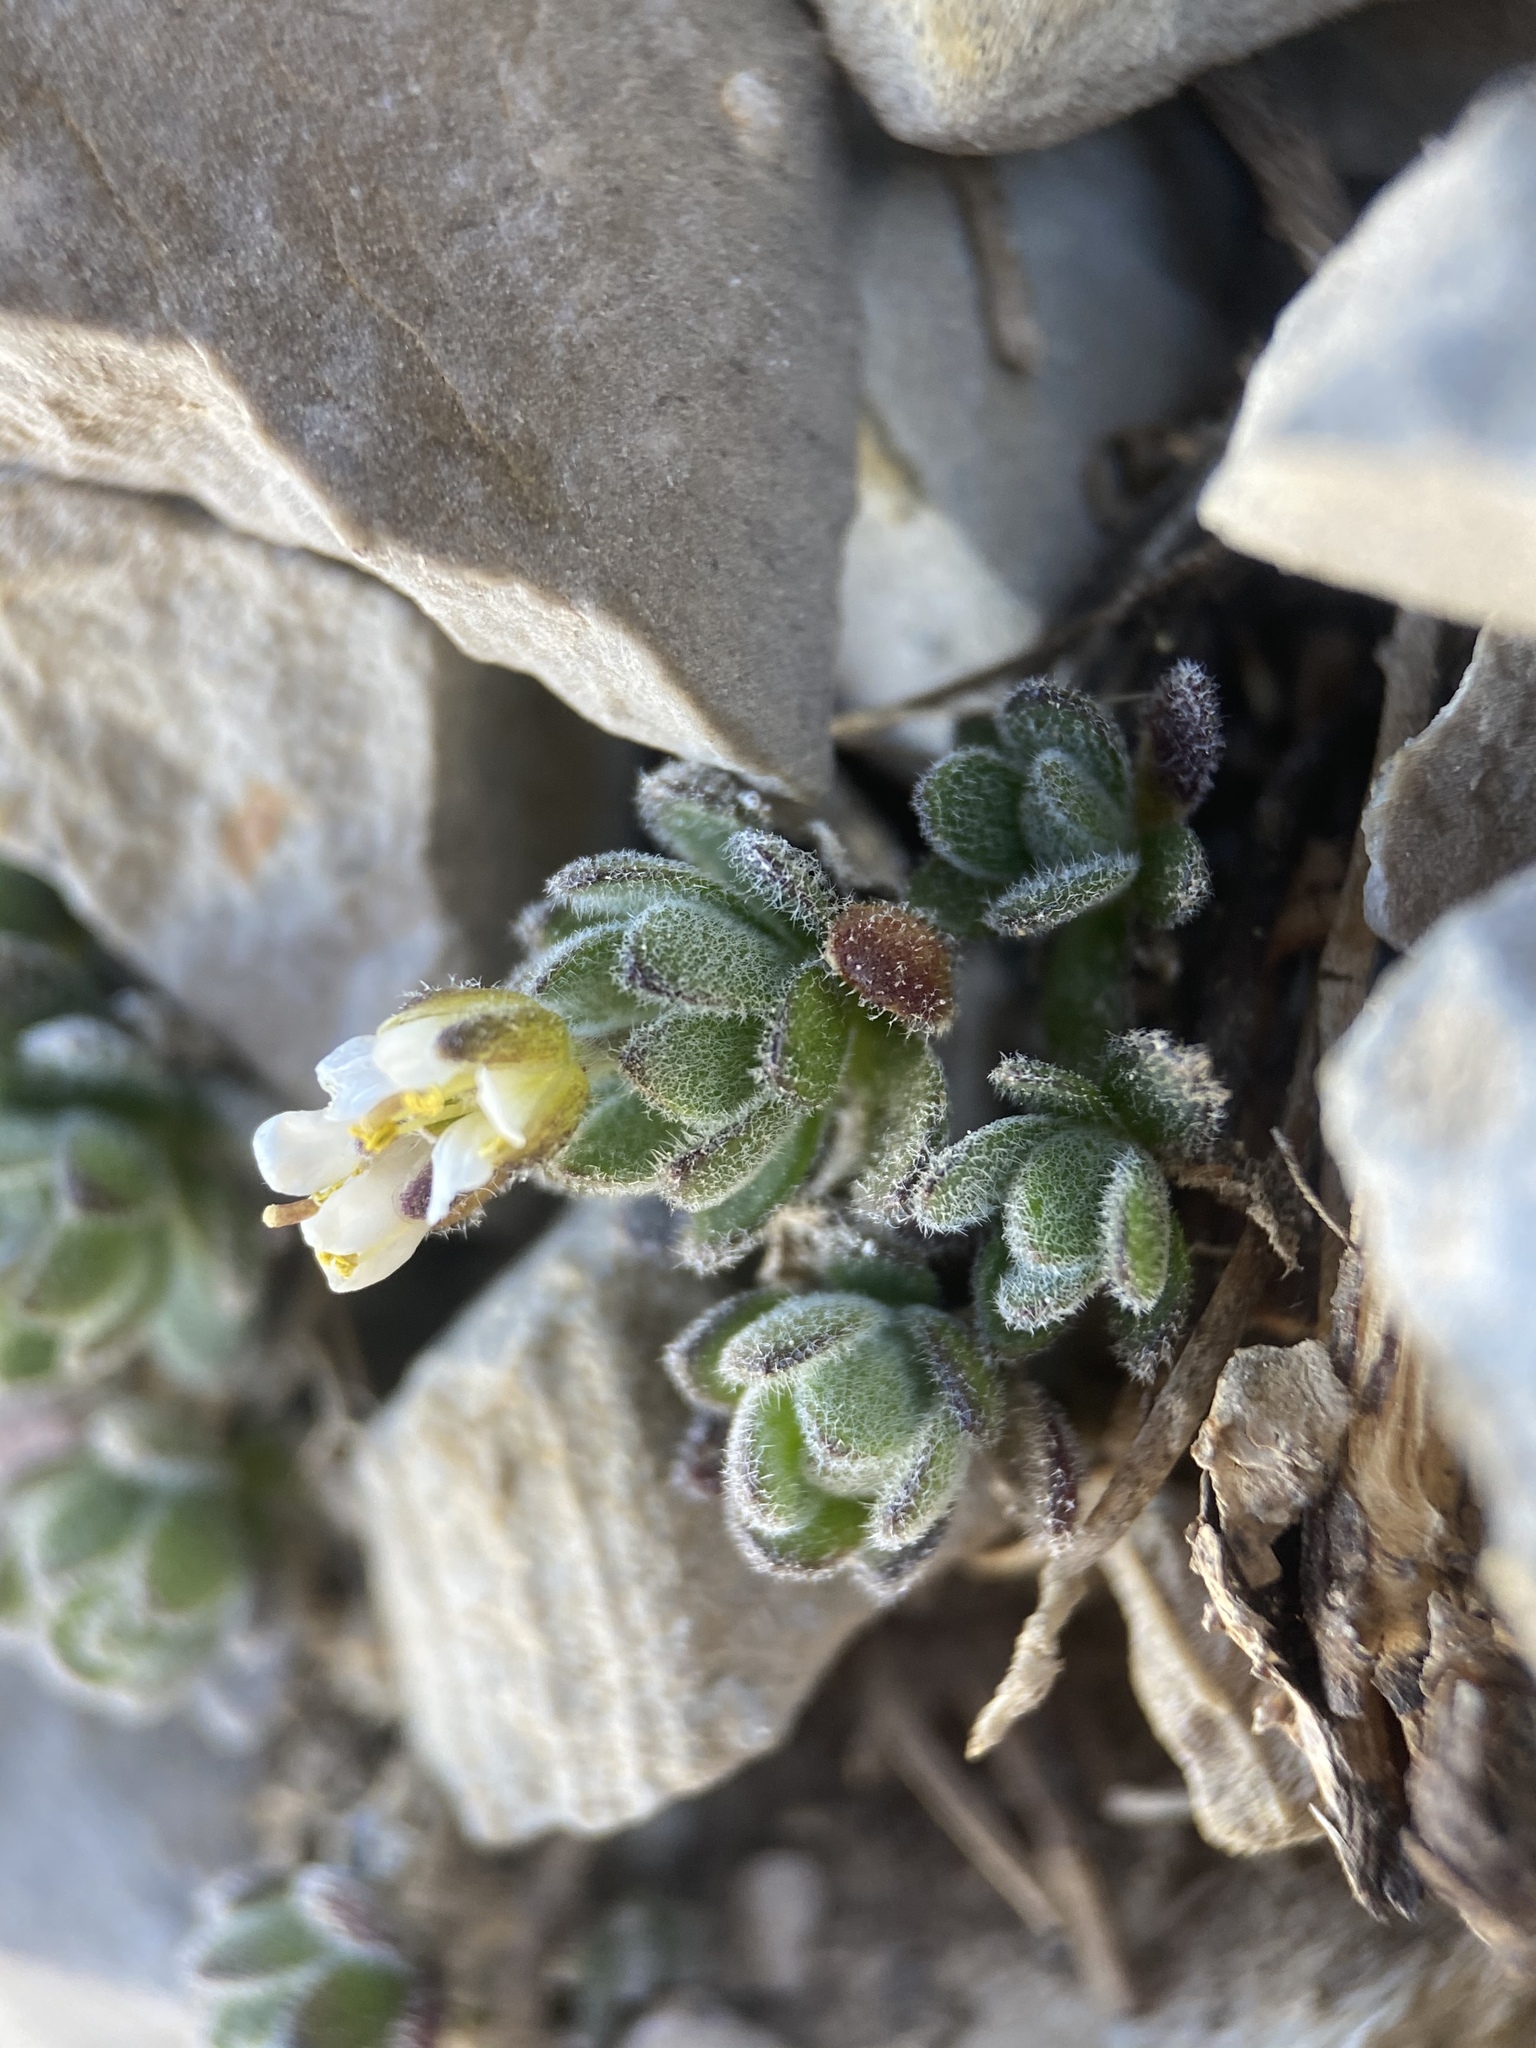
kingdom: Plantae
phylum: Tracheophyta
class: Magnoliopsida
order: Brassicales
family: Brassicaceae
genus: Draba
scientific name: Draba jaegeri
